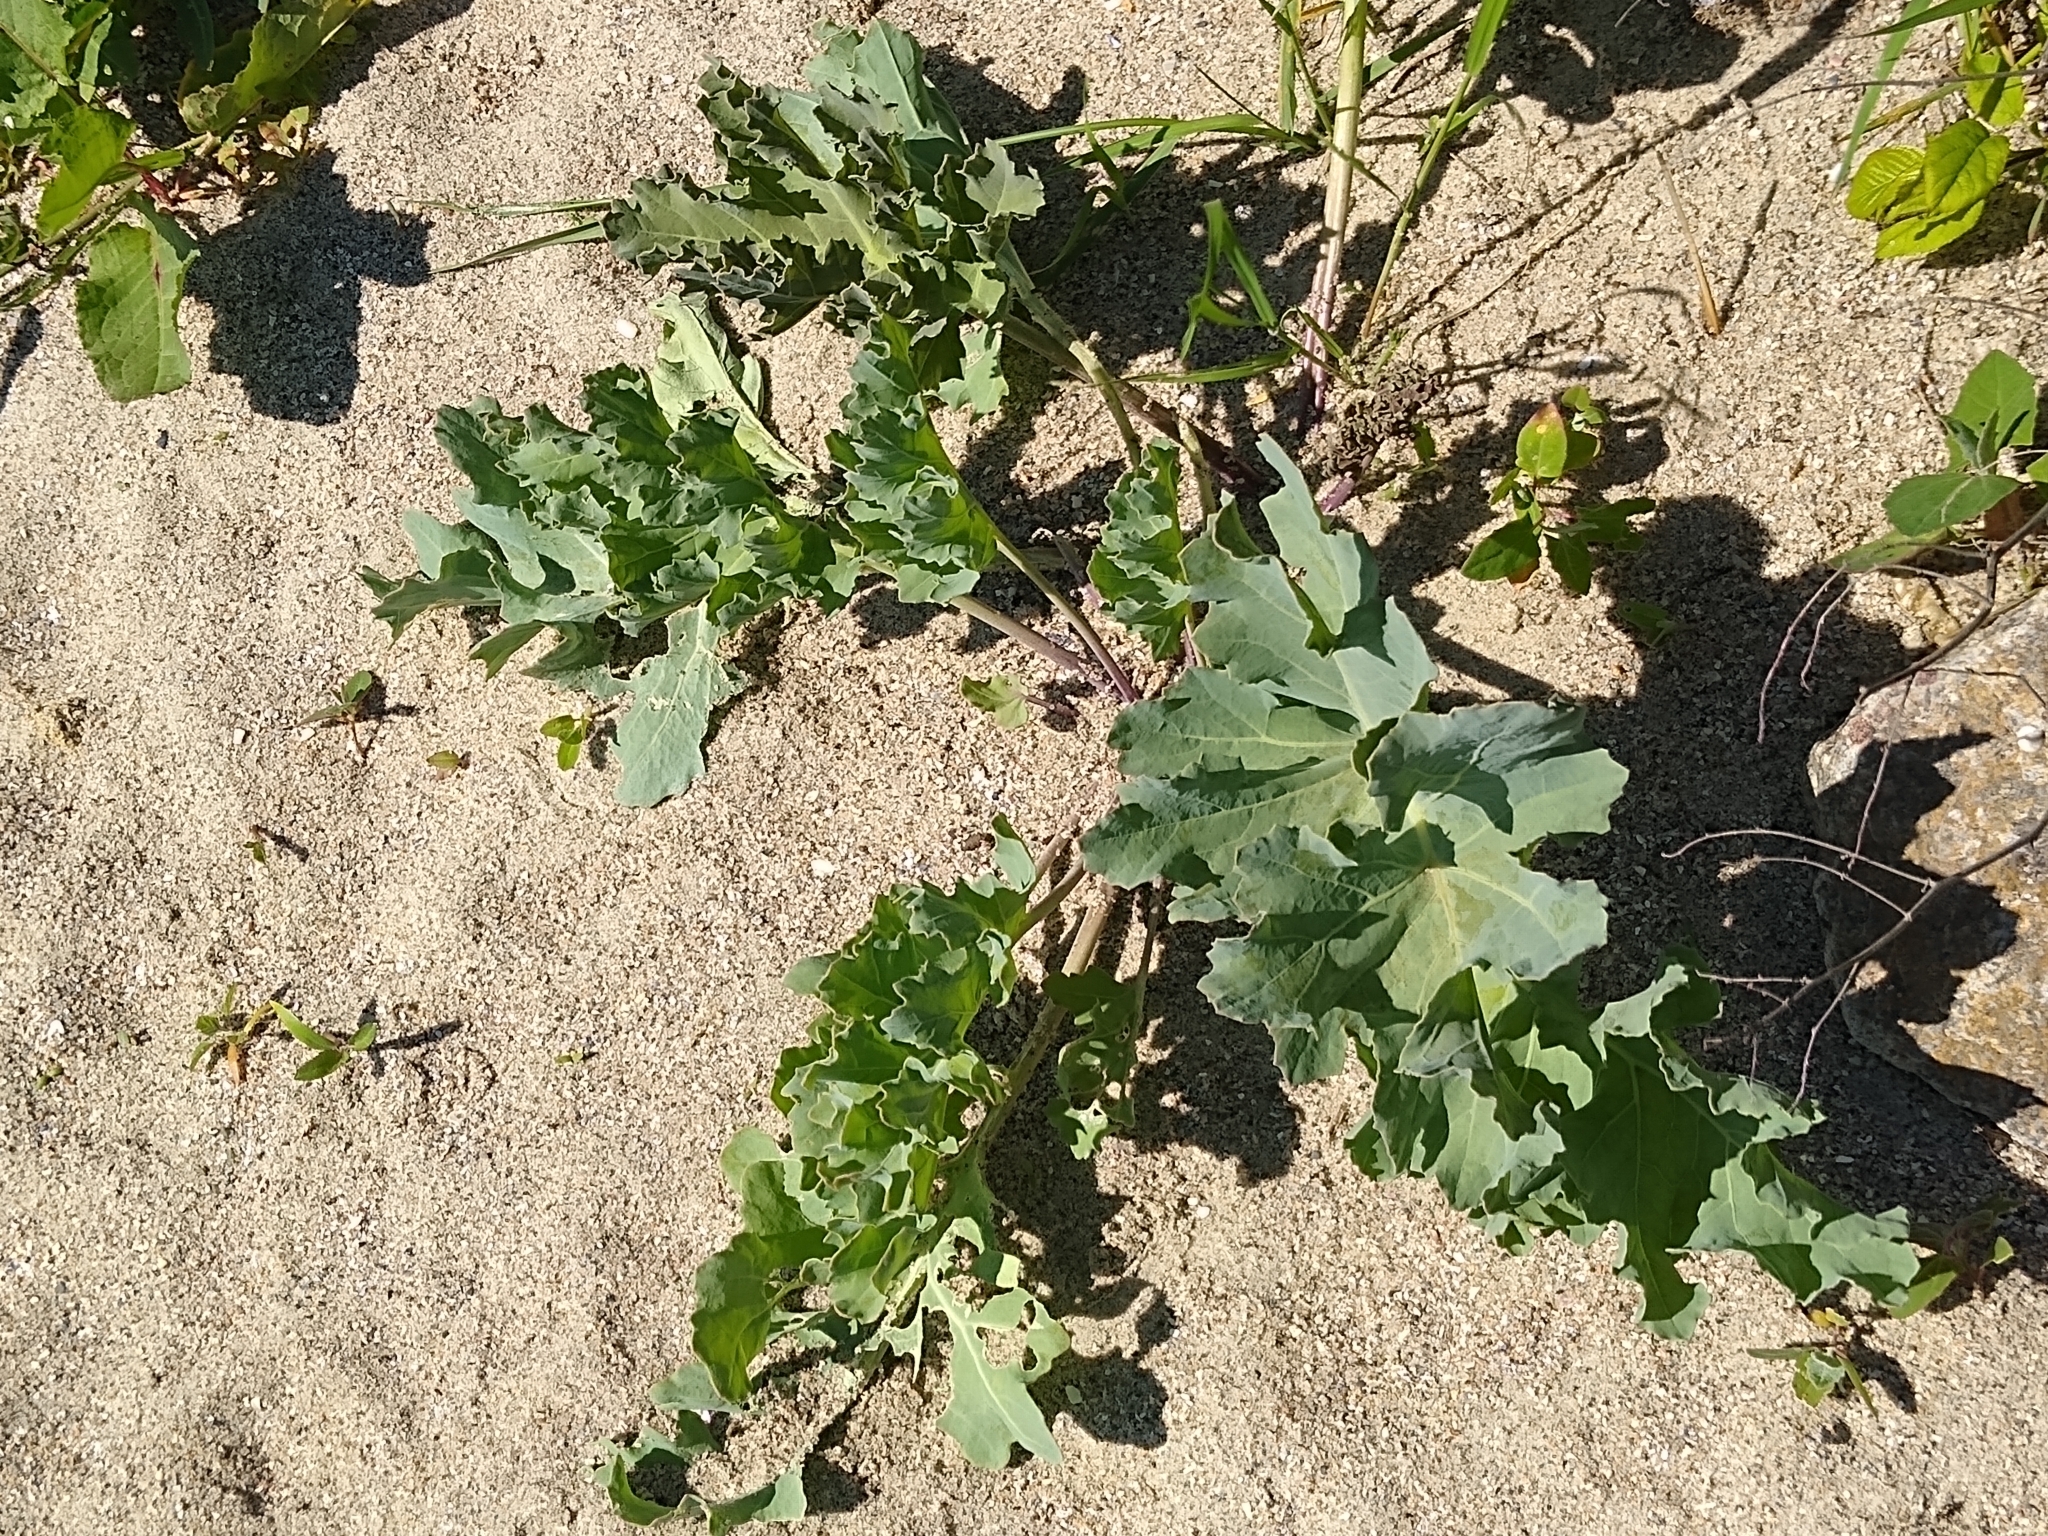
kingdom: Plantae
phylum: Tracheophyta
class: Magnoliopsida
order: Brassicales
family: Brassicaceae
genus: Crambe
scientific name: Crambe maritima
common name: Sea-kale
